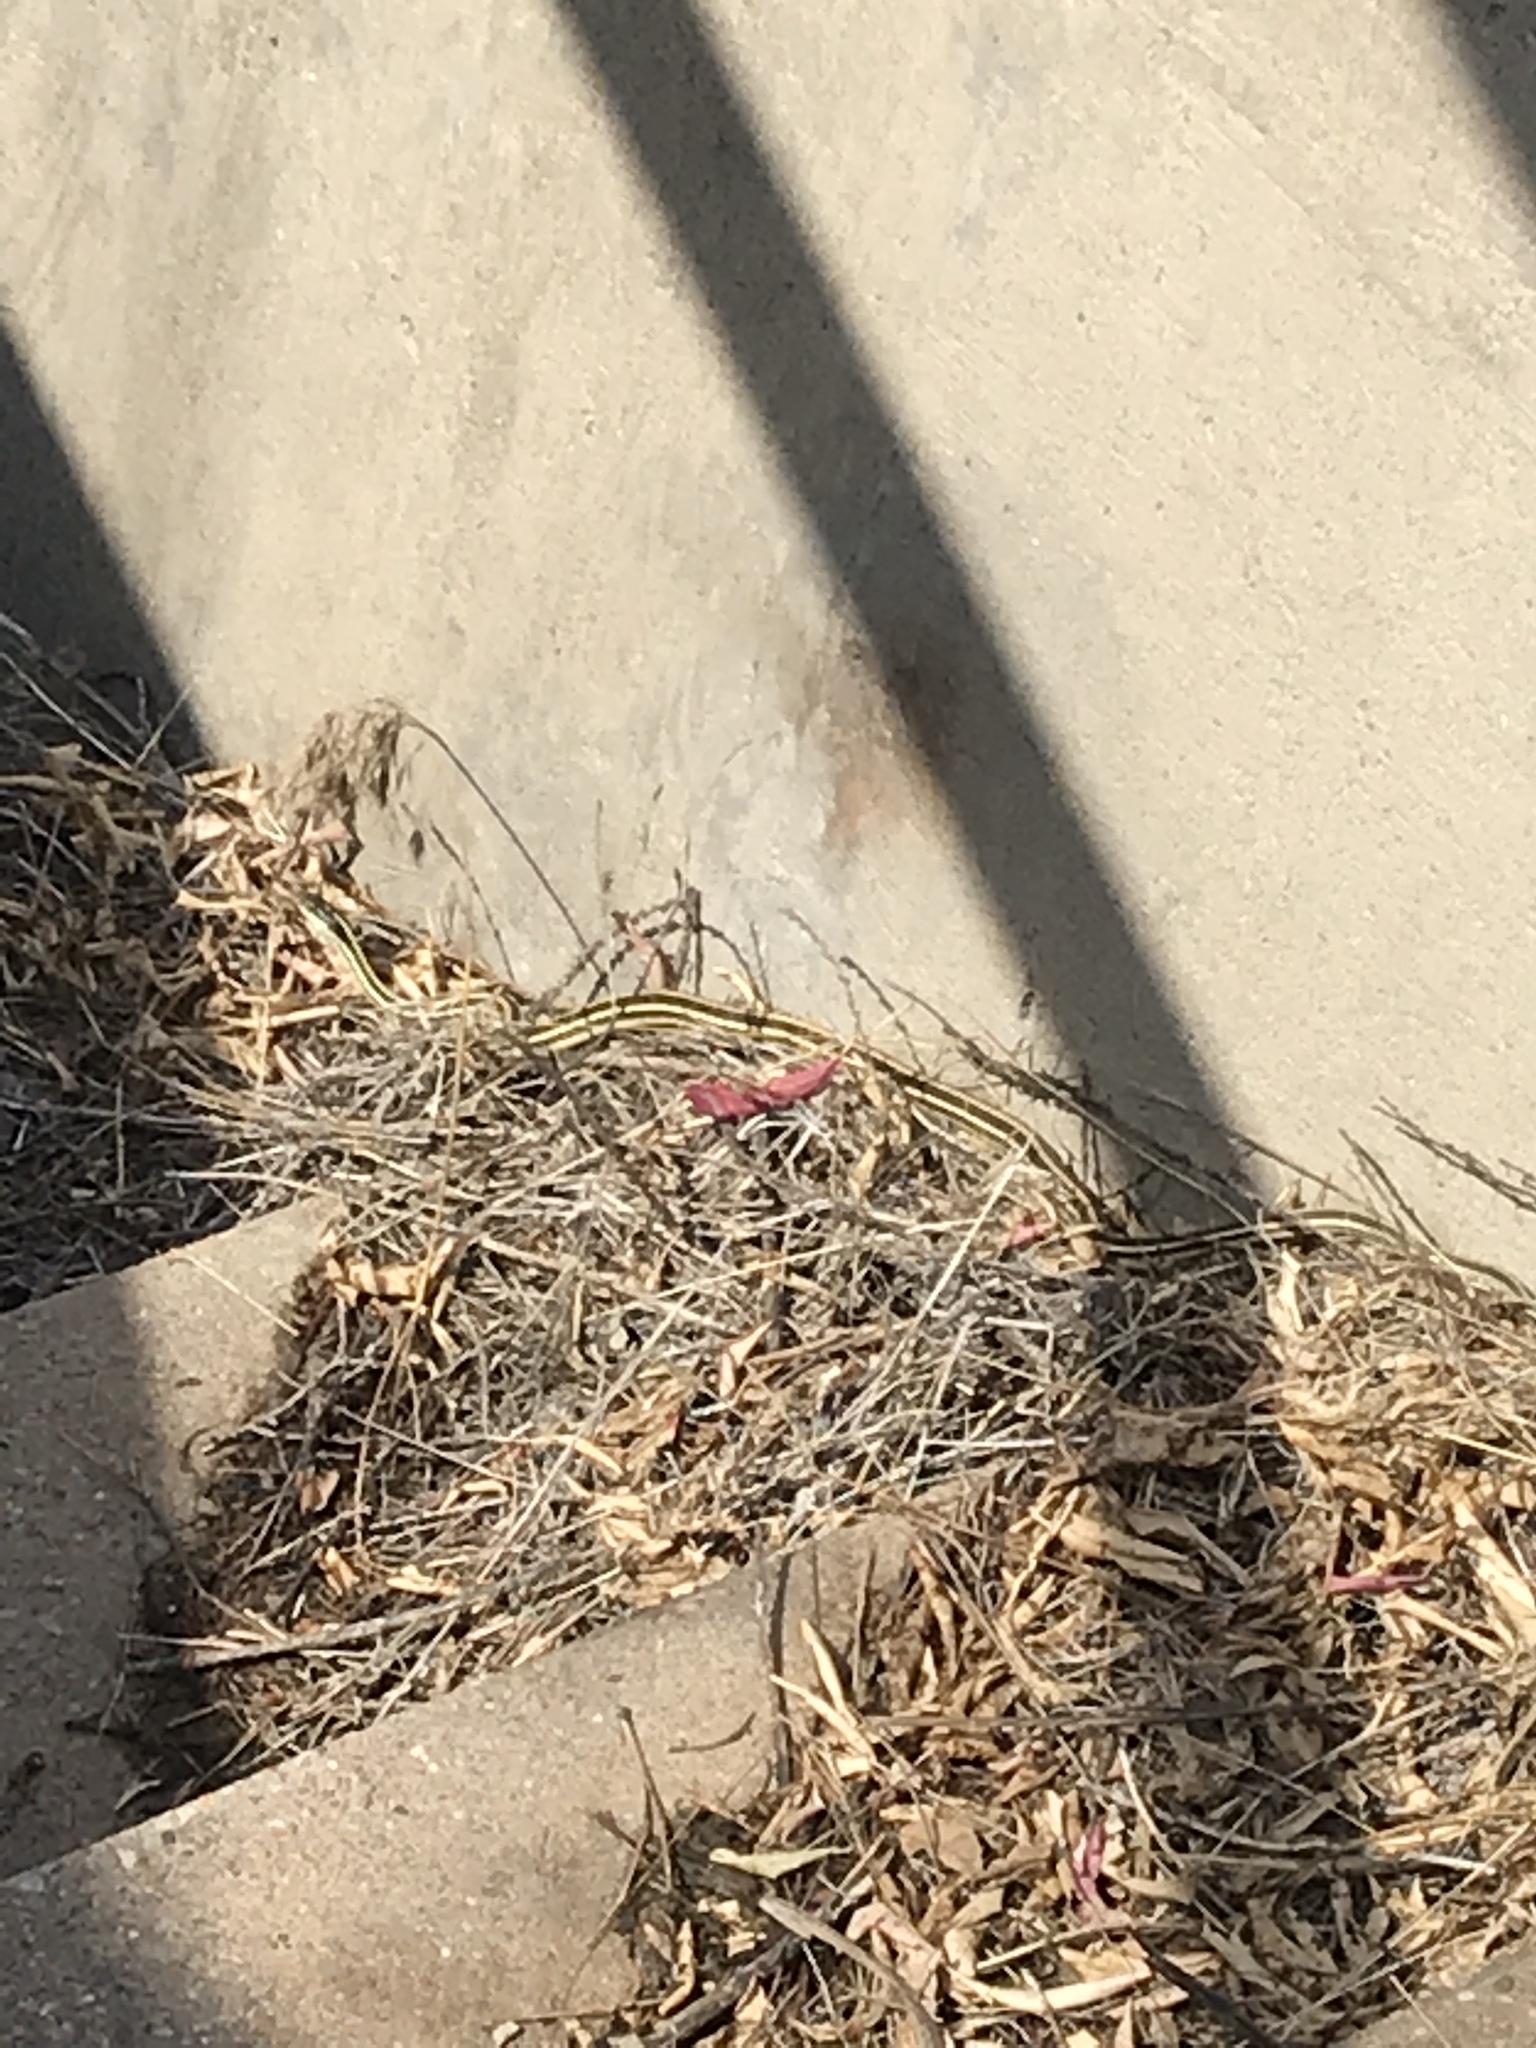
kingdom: Animalia
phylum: Chordata
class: Squamata
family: Colubridae
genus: Thamnophis
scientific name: Thamnophis proximus
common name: Western ribbon snake
